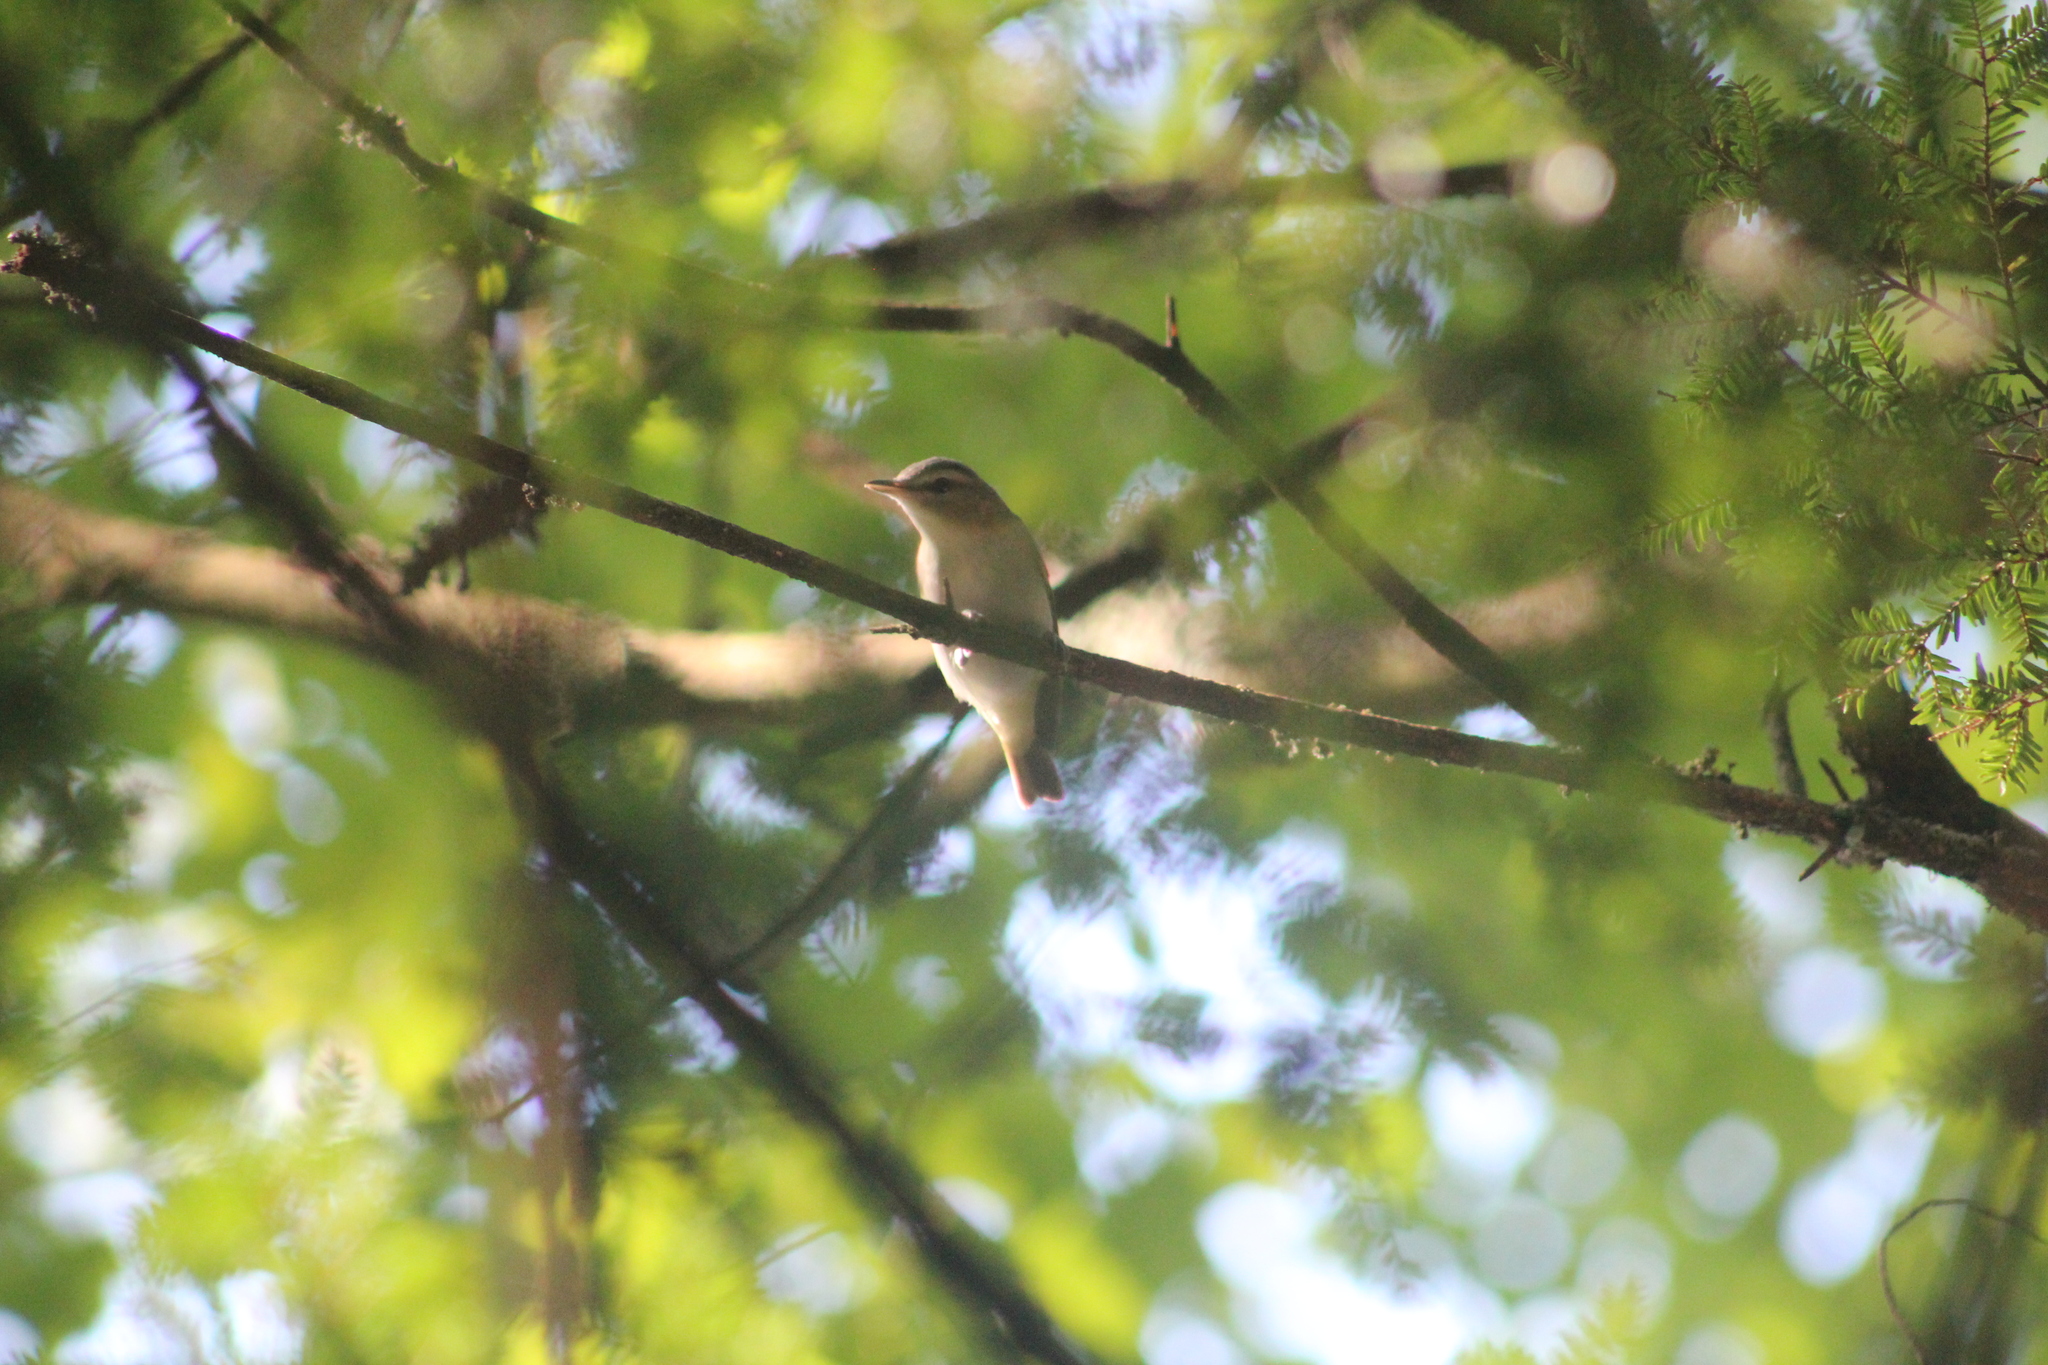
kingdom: Animalia
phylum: Chordata
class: Aves
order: Passeriformes
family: Vireonidae
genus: Vireo
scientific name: Vireo olivaceus
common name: Red-eyed vireo
